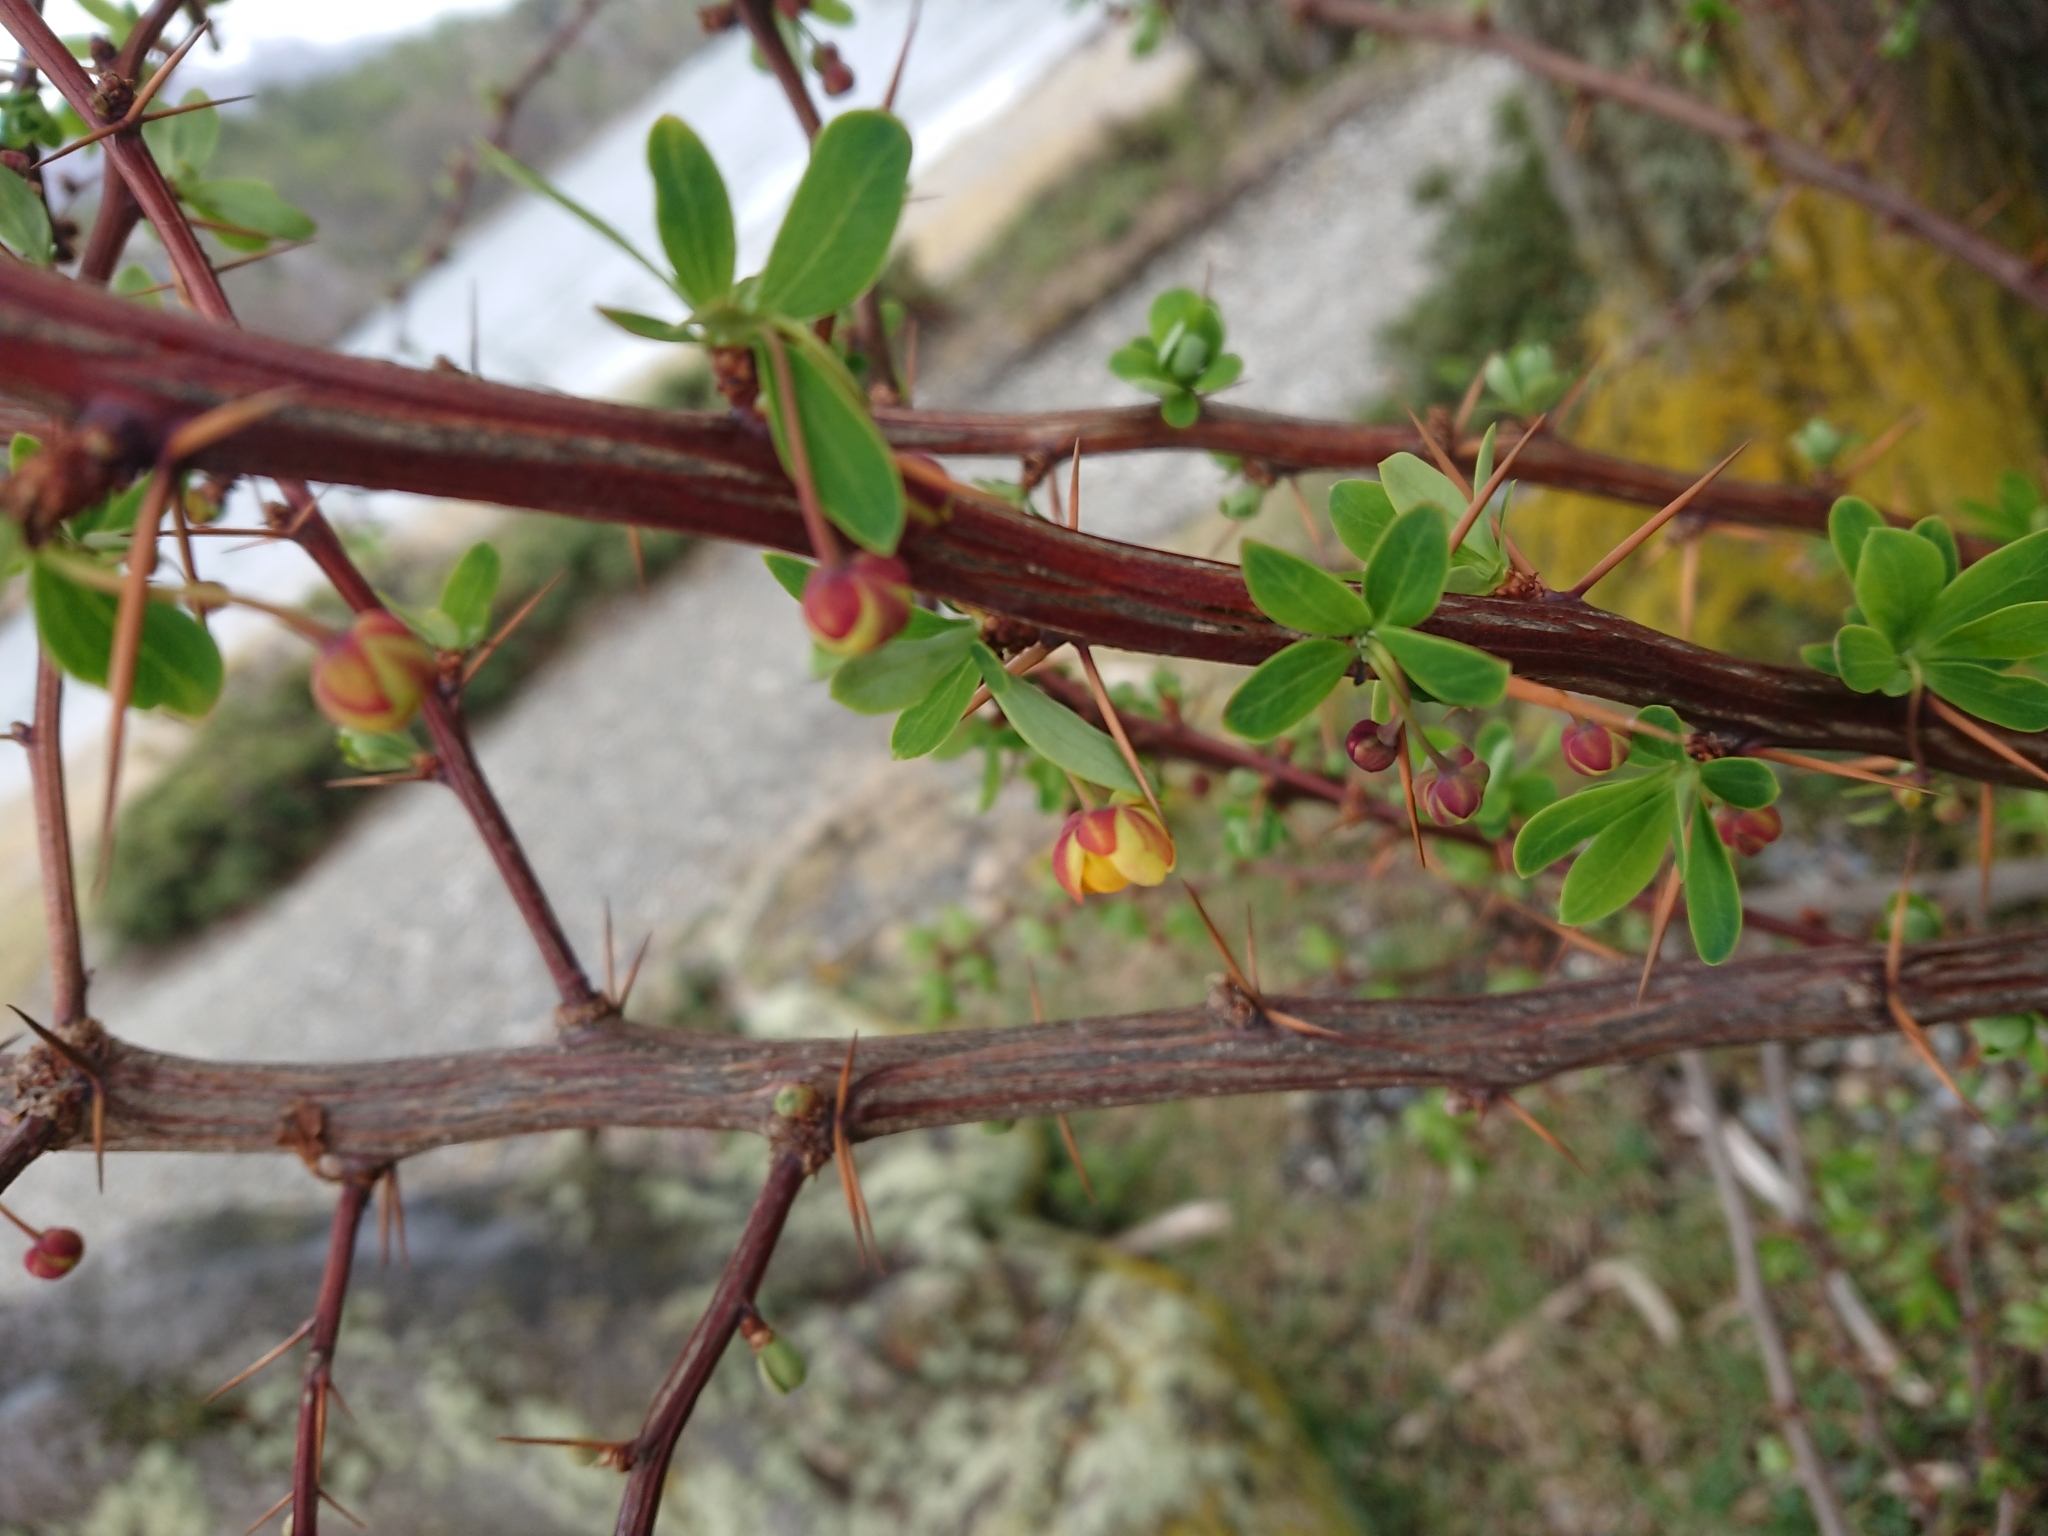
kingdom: Plantae
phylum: Tracheophyta
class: Magnoliopsida
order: Ranunculales
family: Berberidaceae
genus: Berberis
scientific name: Berberis microphylla
